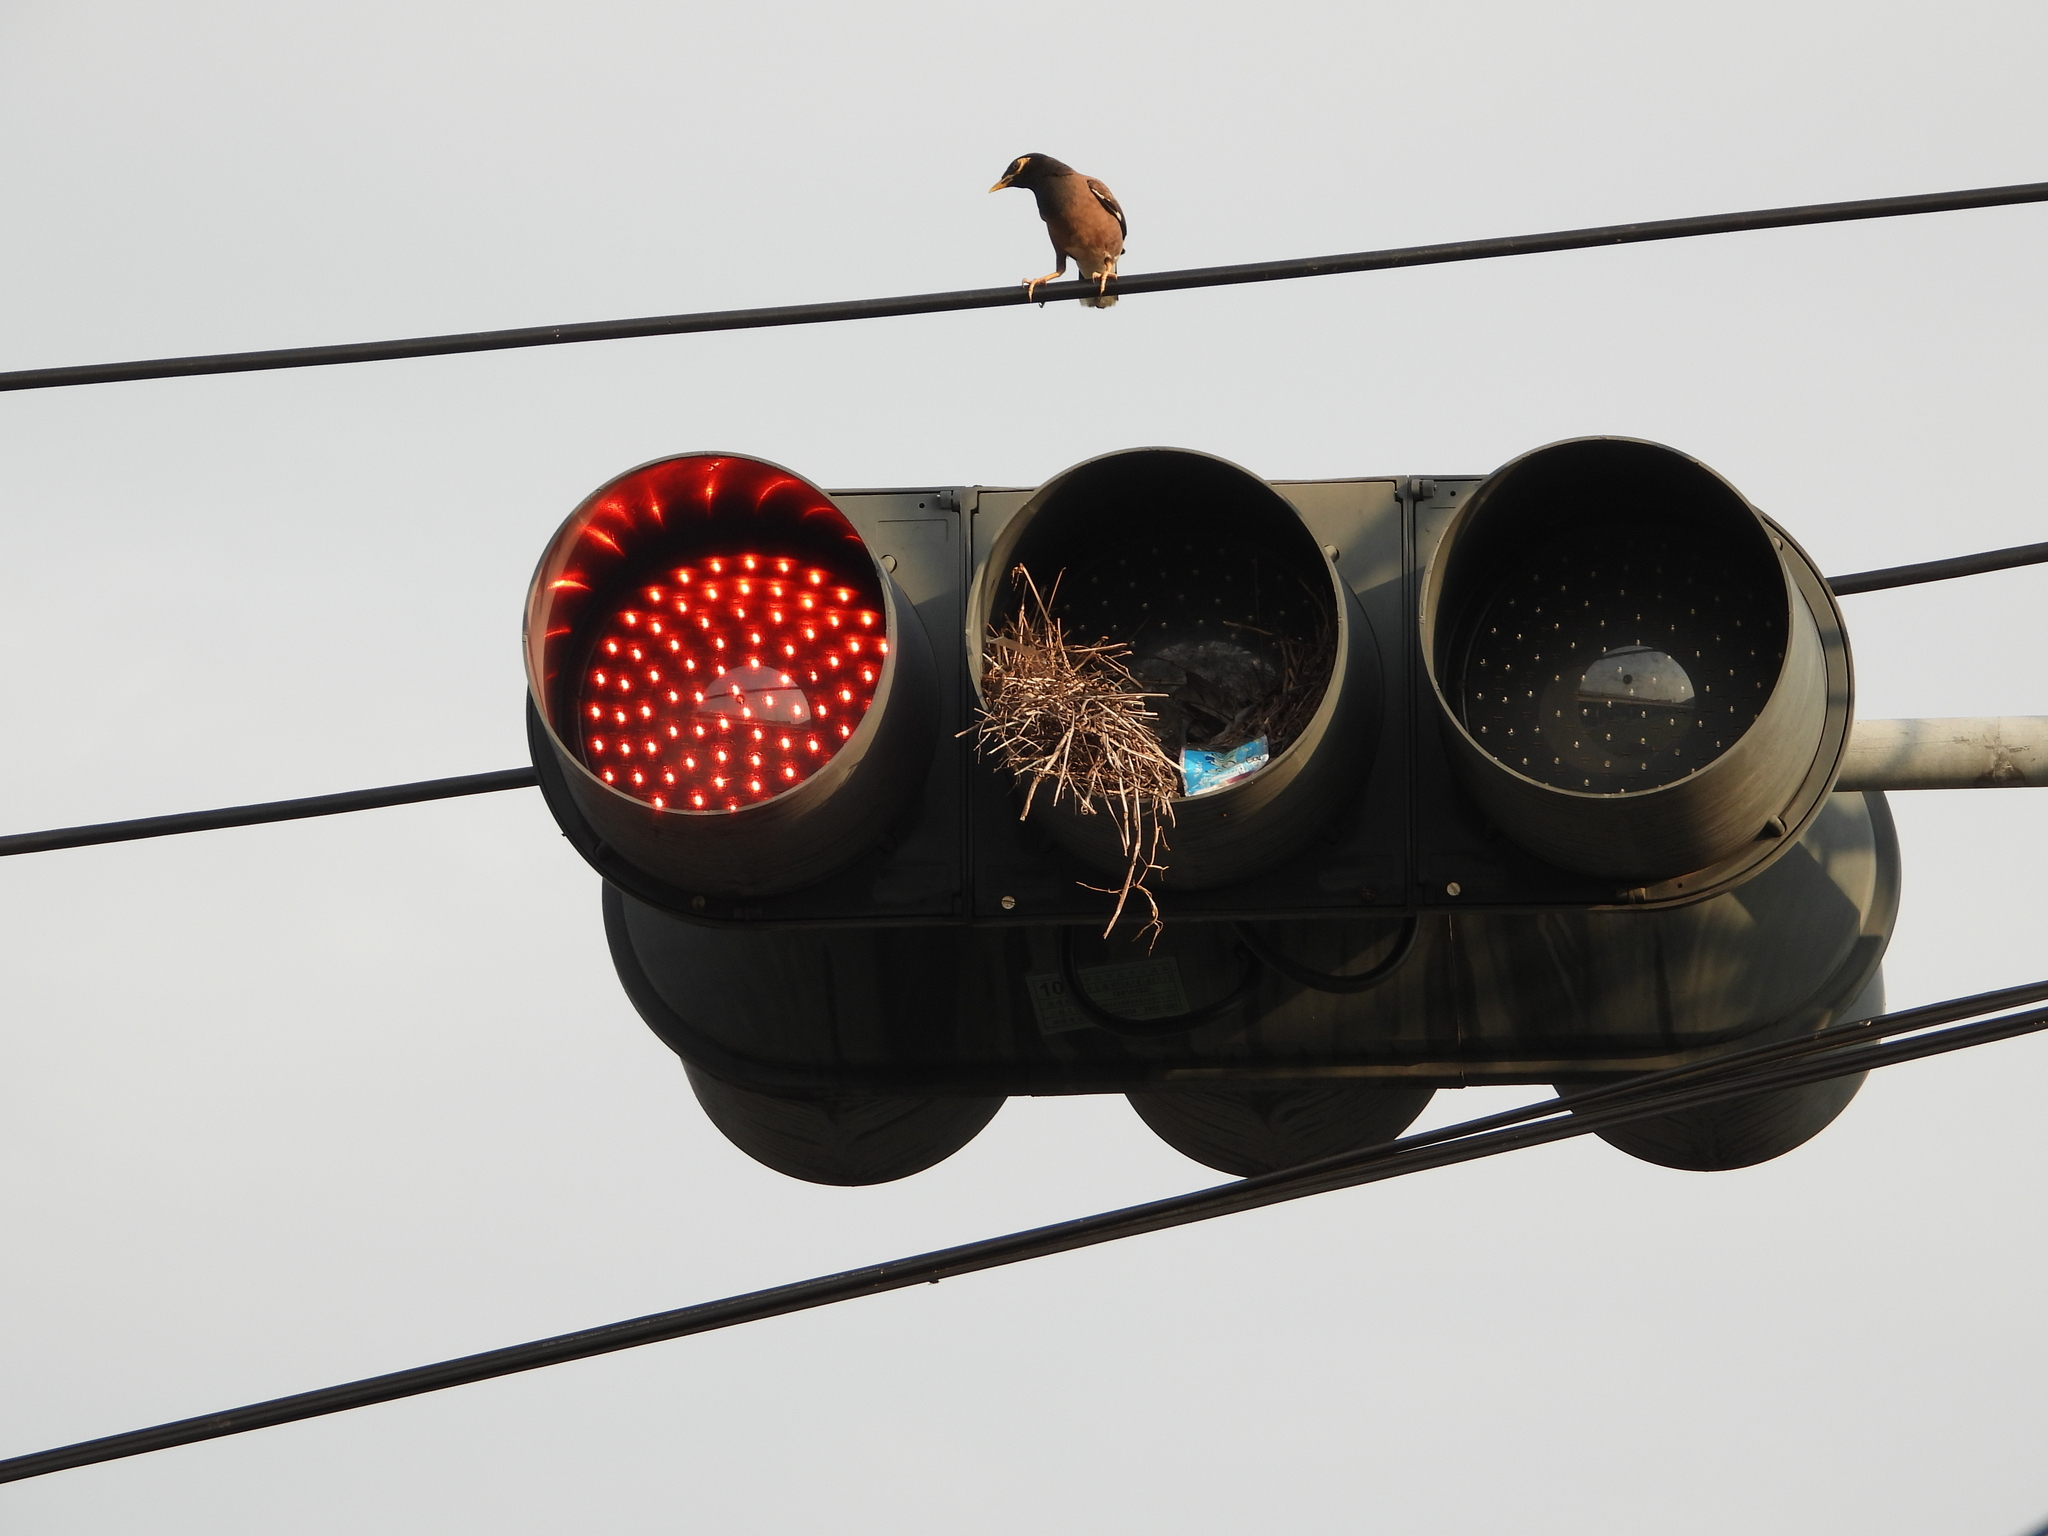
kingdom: Animalia
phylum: Chordata
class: Aves
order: Passeriformes
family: Sturnidae
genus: Acridotheres
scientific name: Acridotheres tristis
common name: Common myna
